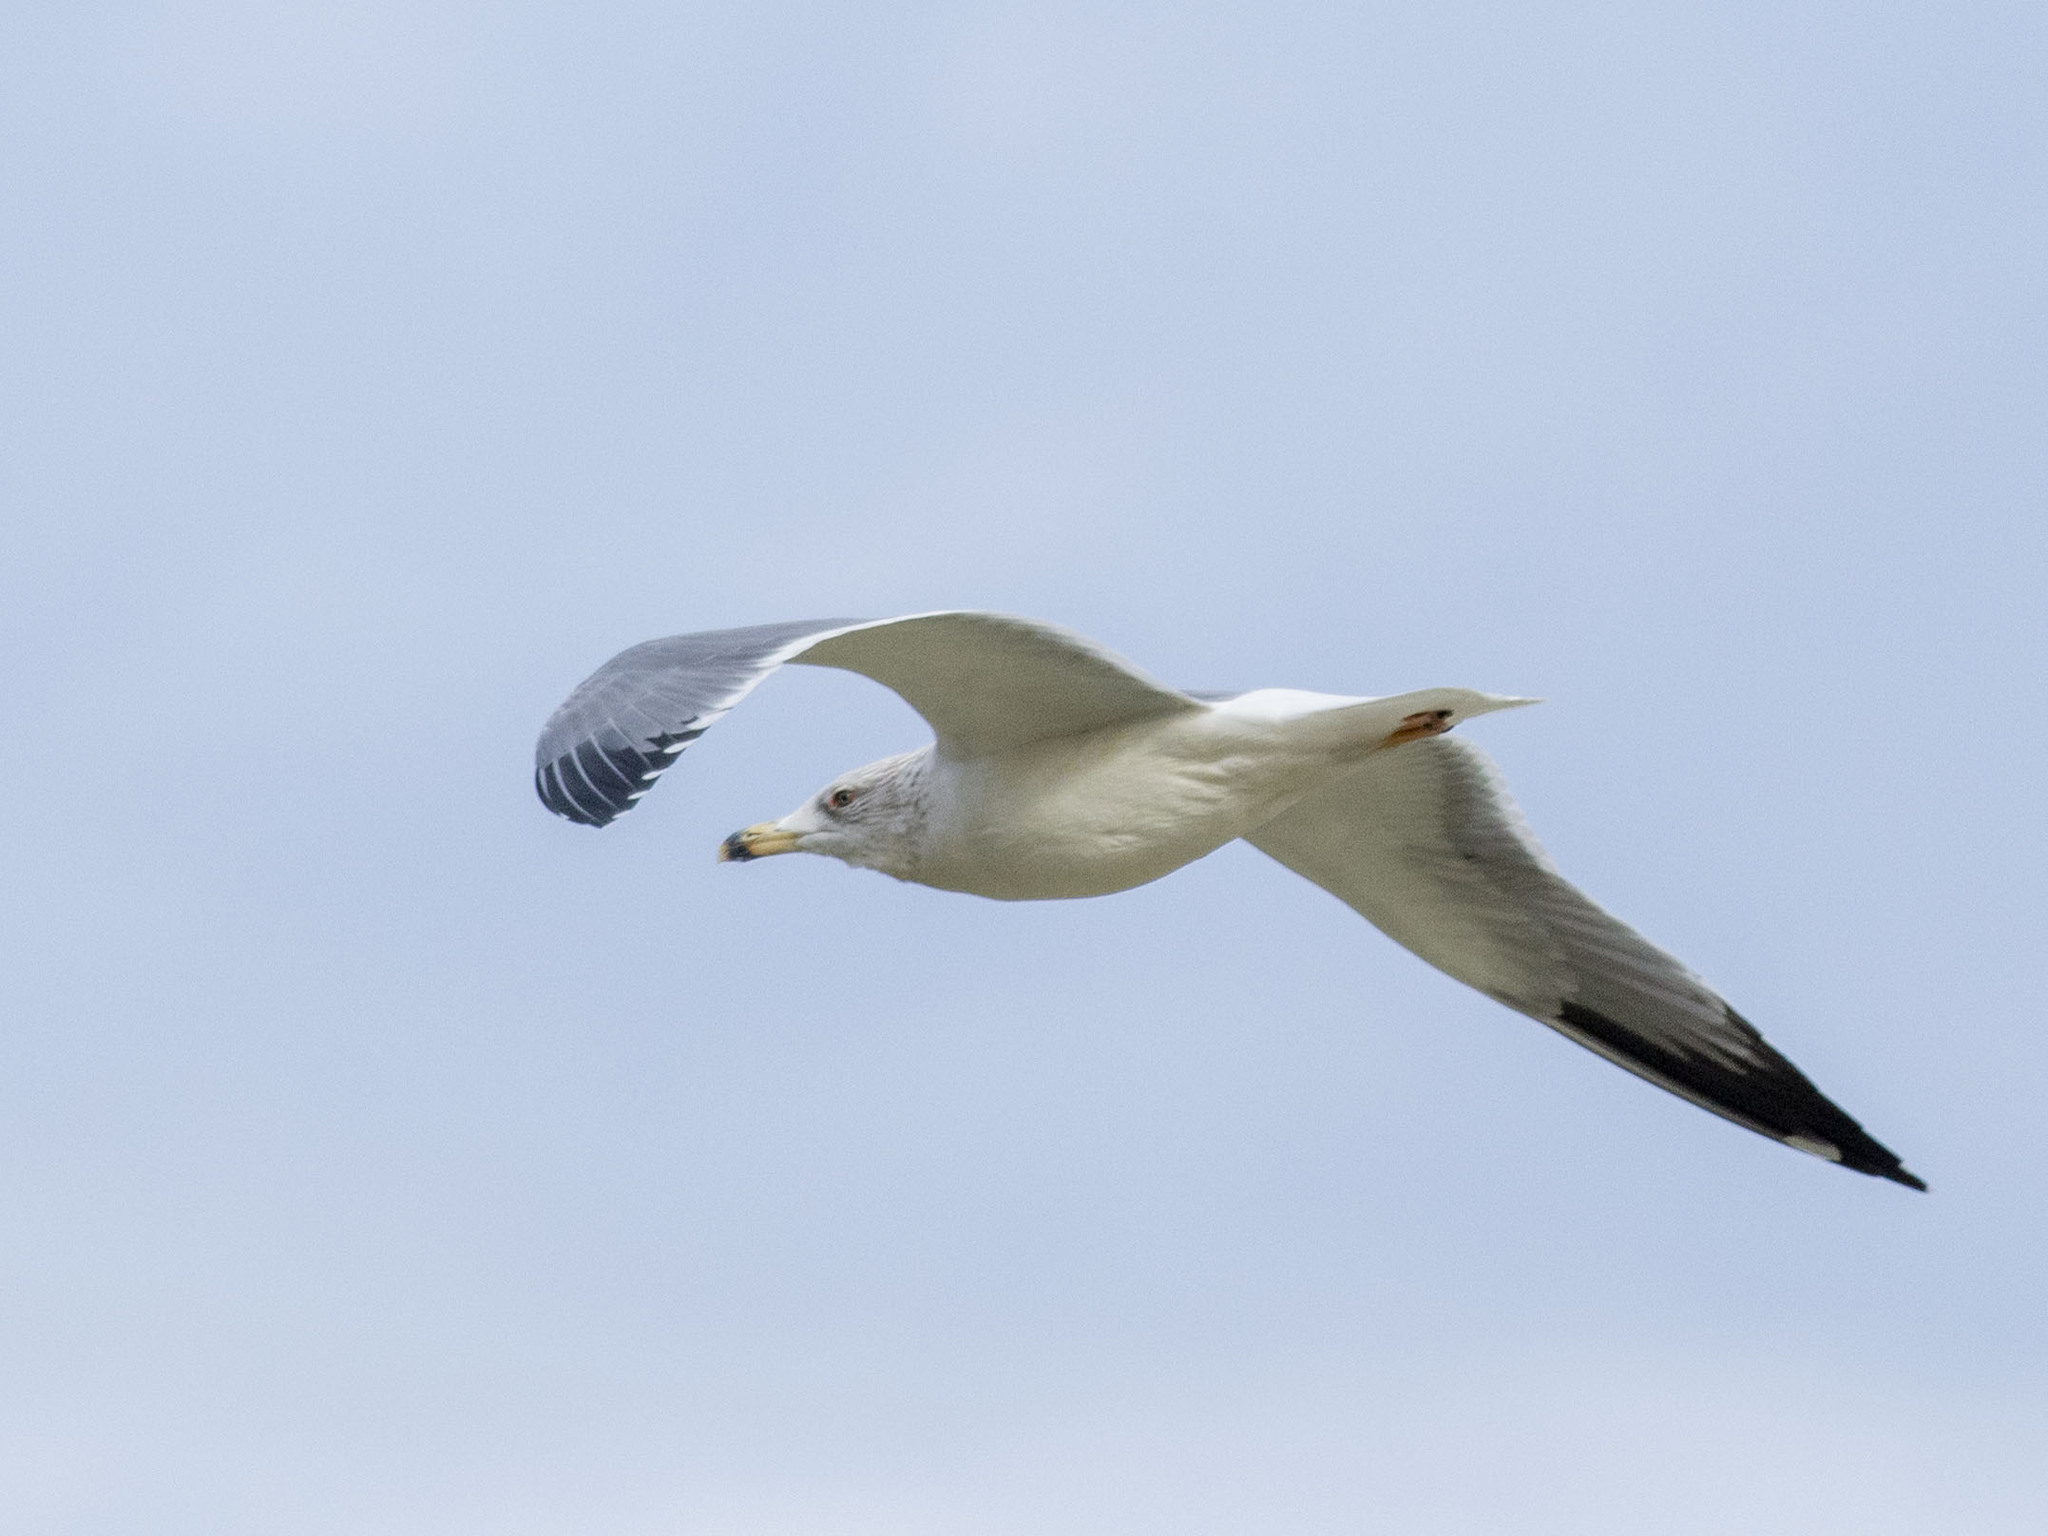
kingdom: Animalia
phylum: Chordata
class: Aves
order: Charadriiformes
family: Laridae
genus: Larus
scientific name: Larus armenicus
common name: Armenian gull
